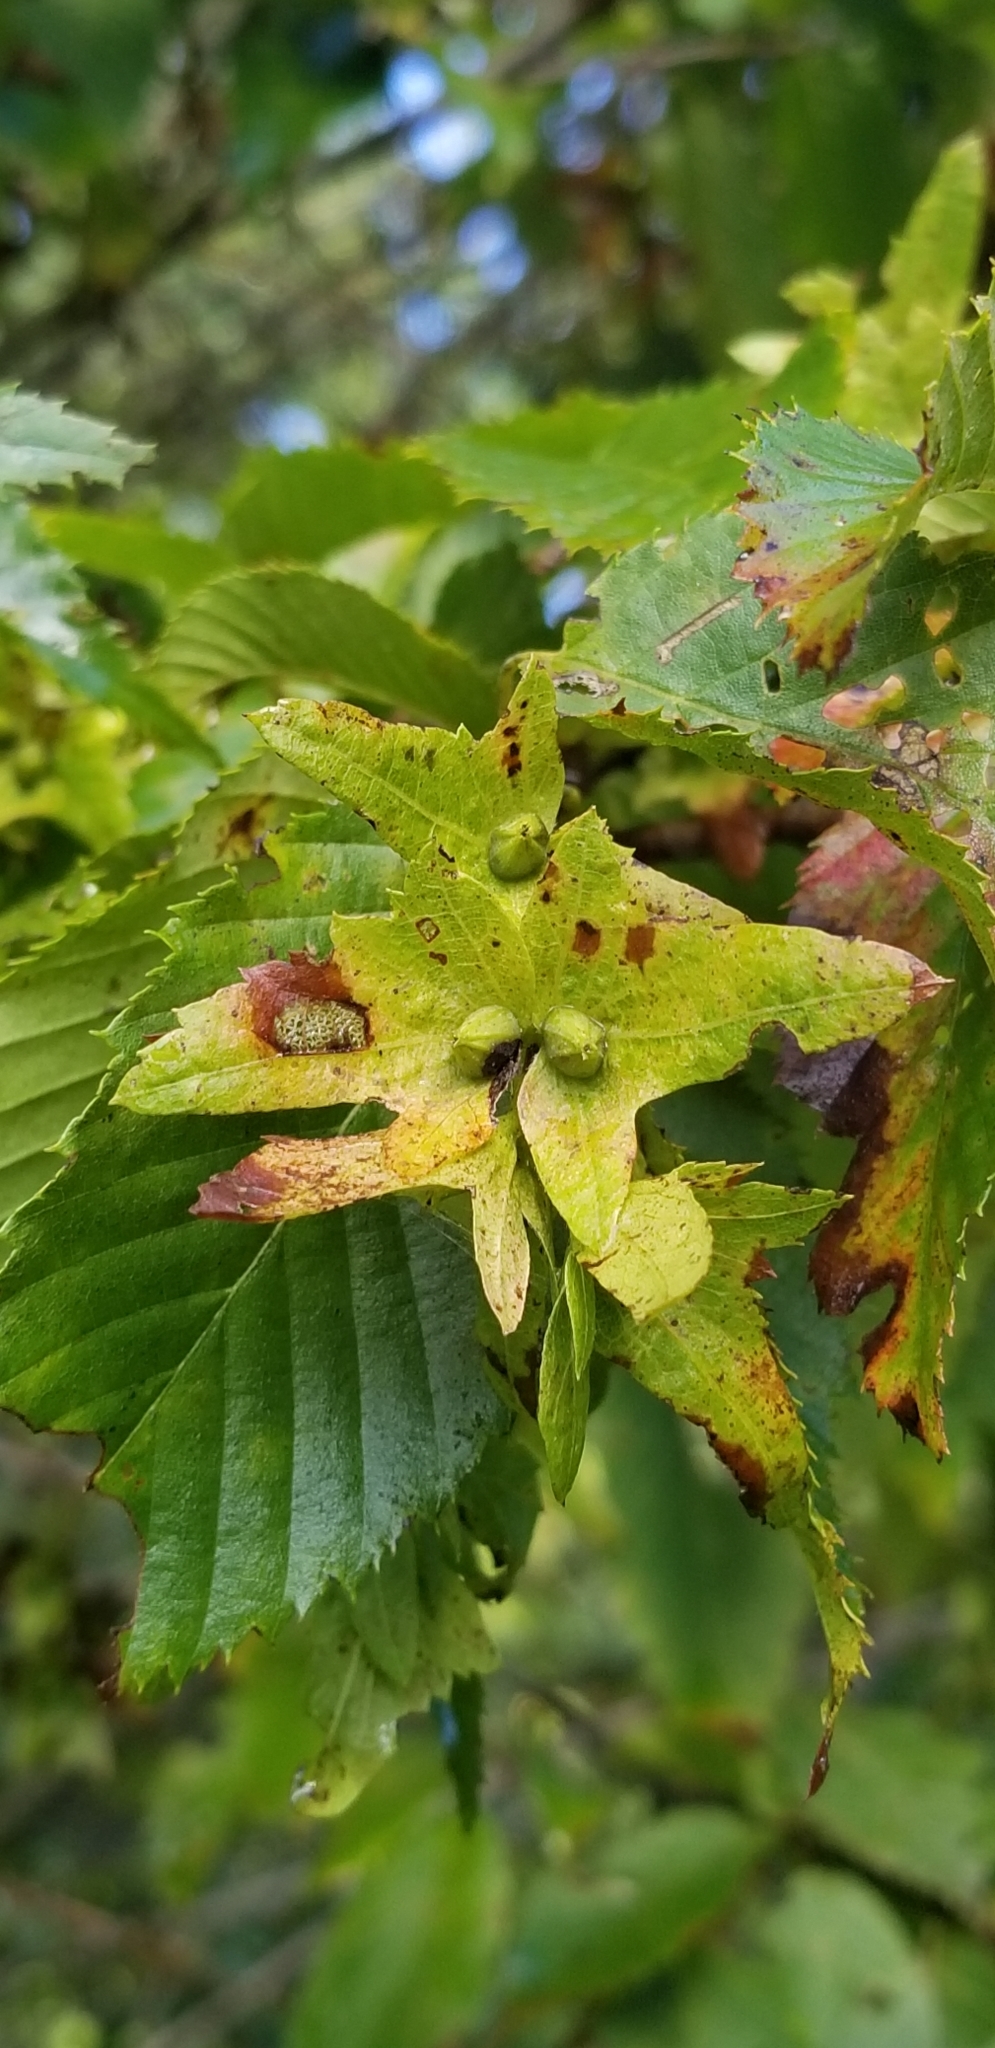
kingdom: Plantae
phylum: Tracheophyta
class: Magnoliopsida
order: Fagales
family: Betulaceae
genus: Carpinus
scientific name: Carpinus caroliniana
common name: American hornbeam
